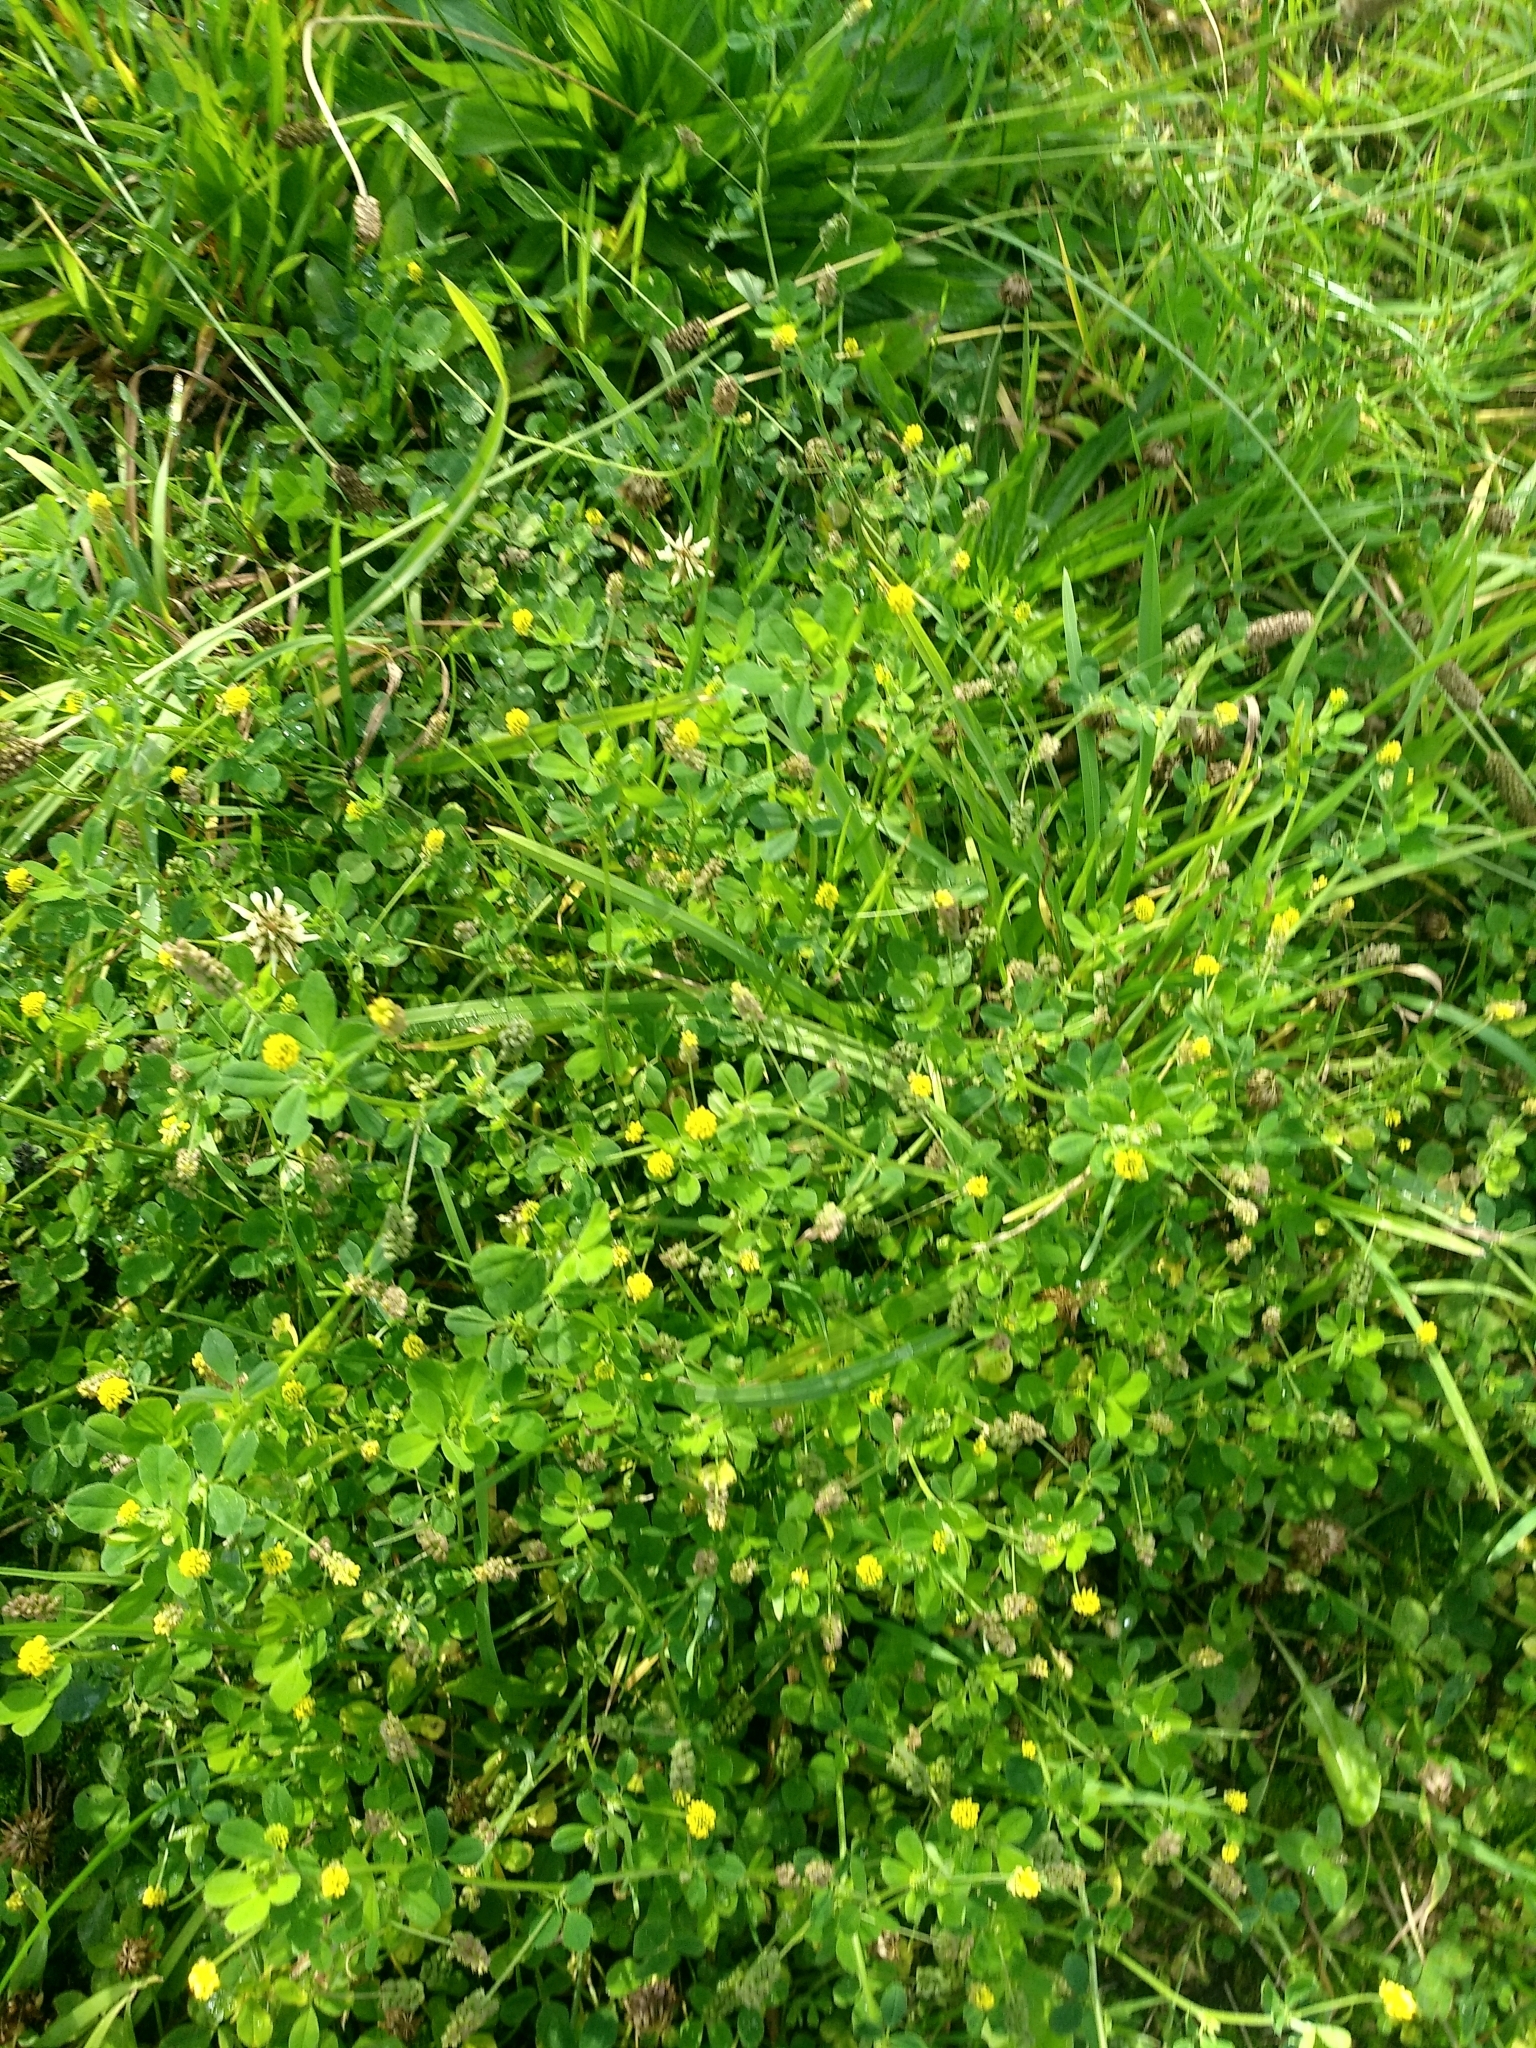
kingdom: Plantae
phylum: Tracheophyta
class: Magnoliopsida
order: Fabales
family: Fabaceae
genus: Medicago
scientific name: Medicago lupulina
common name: Black medick
